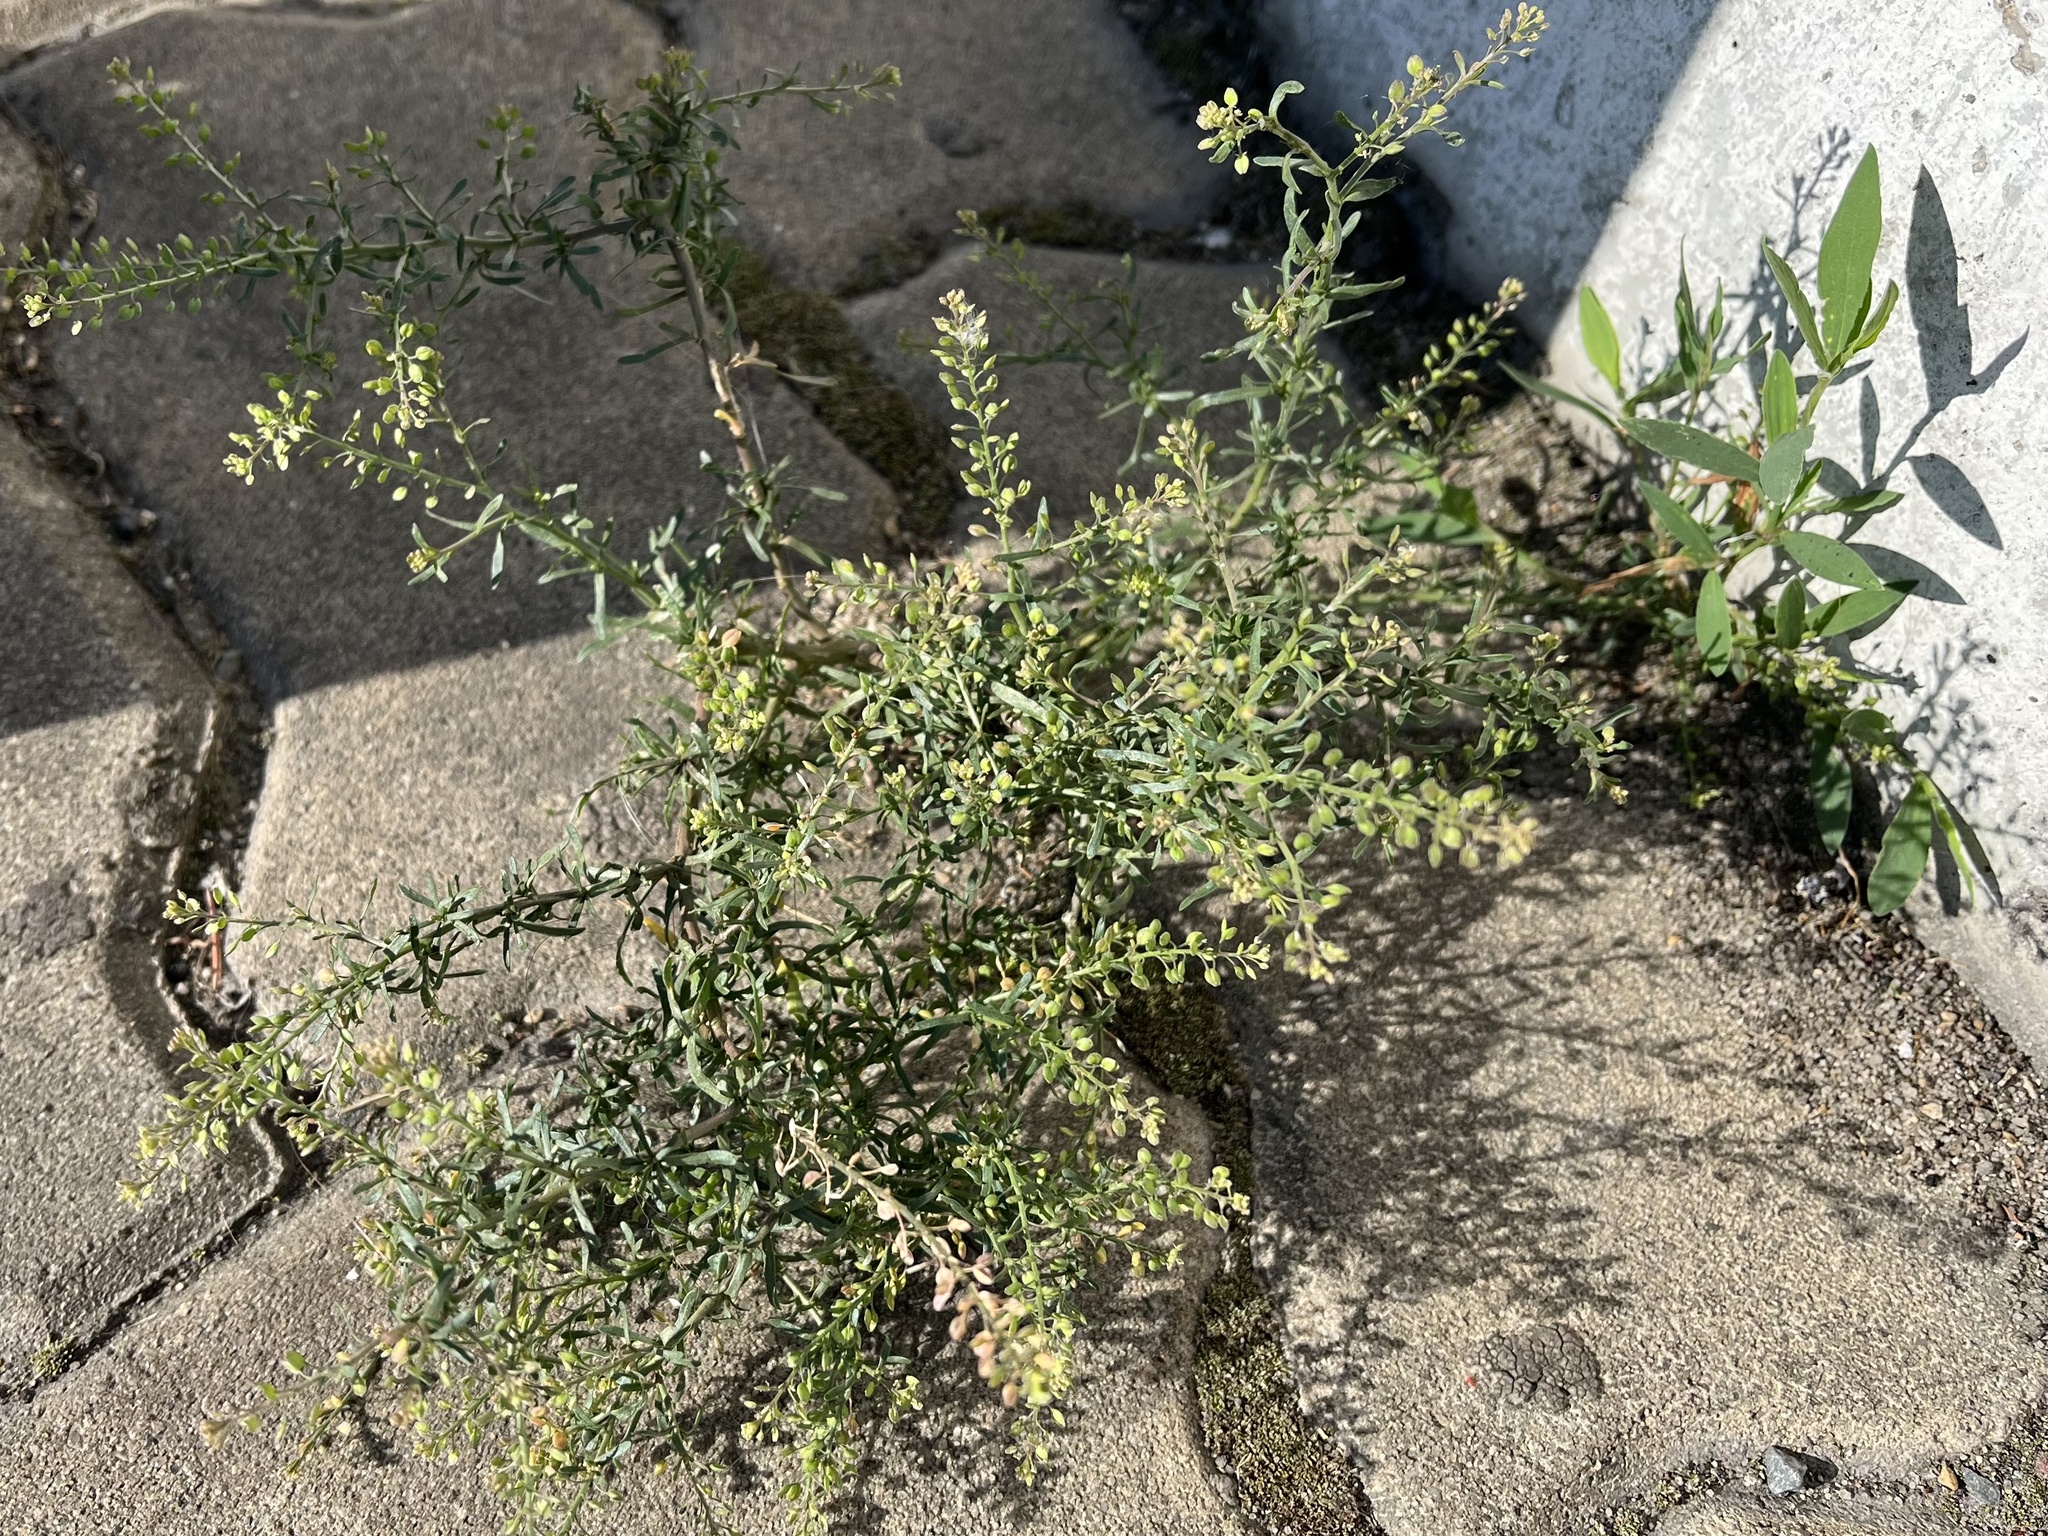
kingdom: Plantae
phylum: Tracheophyta
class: Magnoliopsida
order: Brassicales
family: Brassicaceae
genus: Lepidium
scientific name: Lepidium ruderale
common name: Narrow-leaved pepperwort
